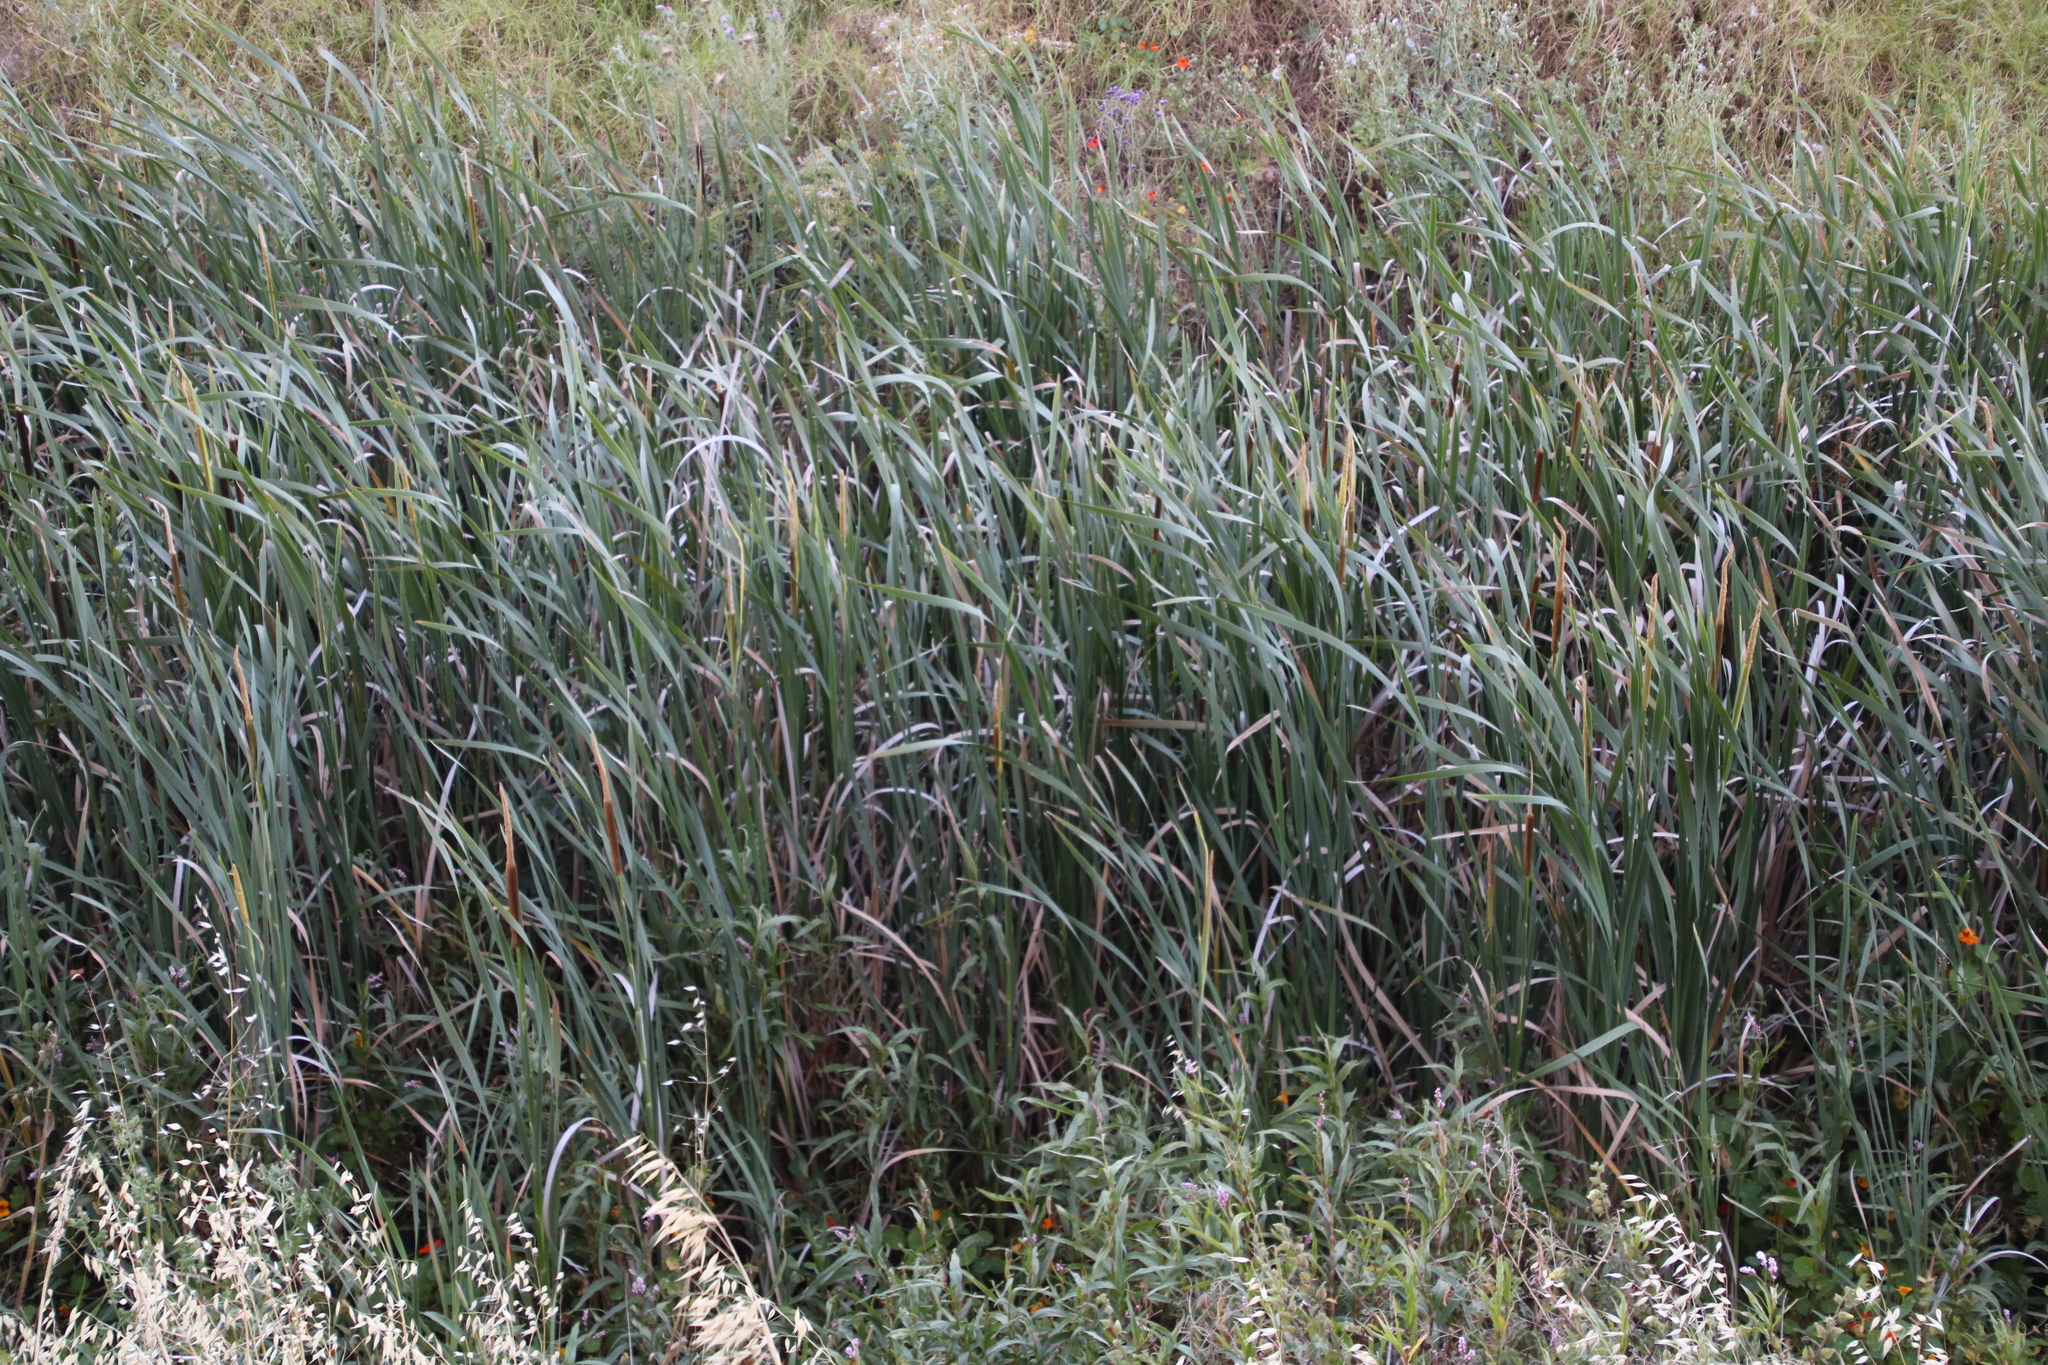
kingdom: Plantae
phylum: Tracheophyta
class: Liliopsida
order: Poales
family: Typhaceae
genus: Typha
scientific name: Typha capensis
